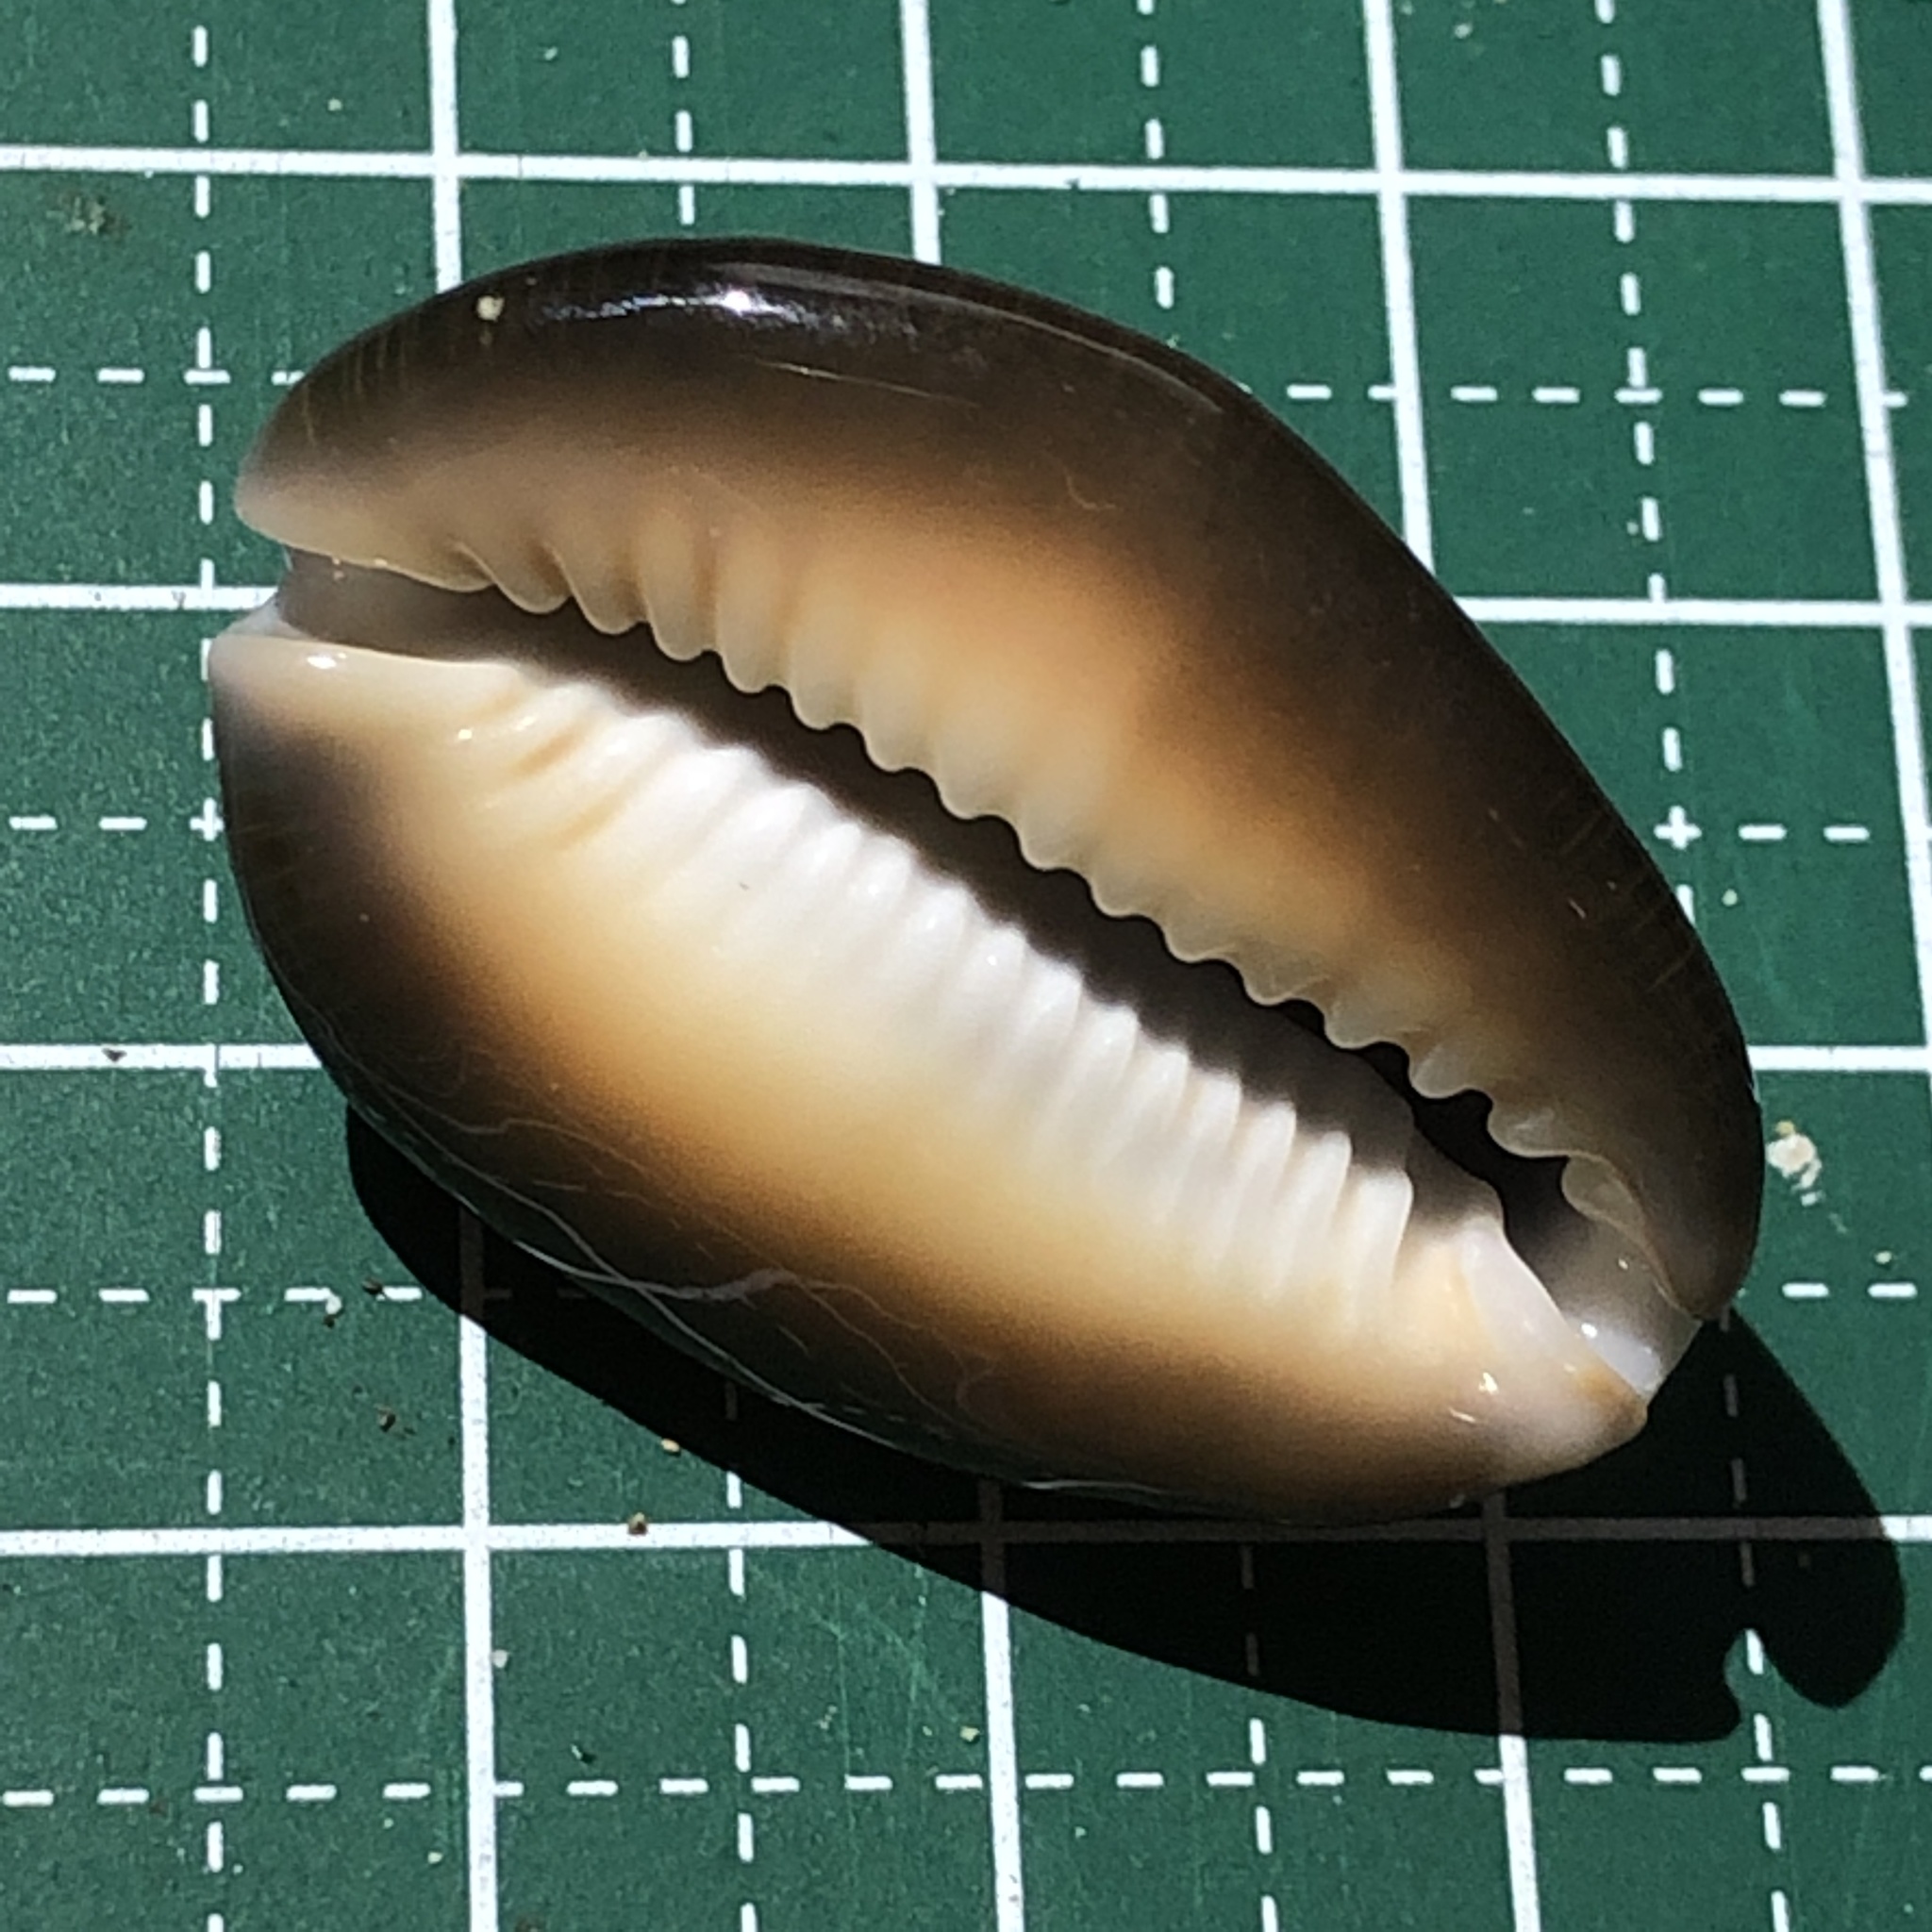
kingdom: Animalia
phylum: Mollusca
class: Gastropoda
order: Littorinimorpha
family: Cypraeidae
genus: Monetaria
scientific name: Monetaria caputserpentis
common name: Serpent's head cowrie
